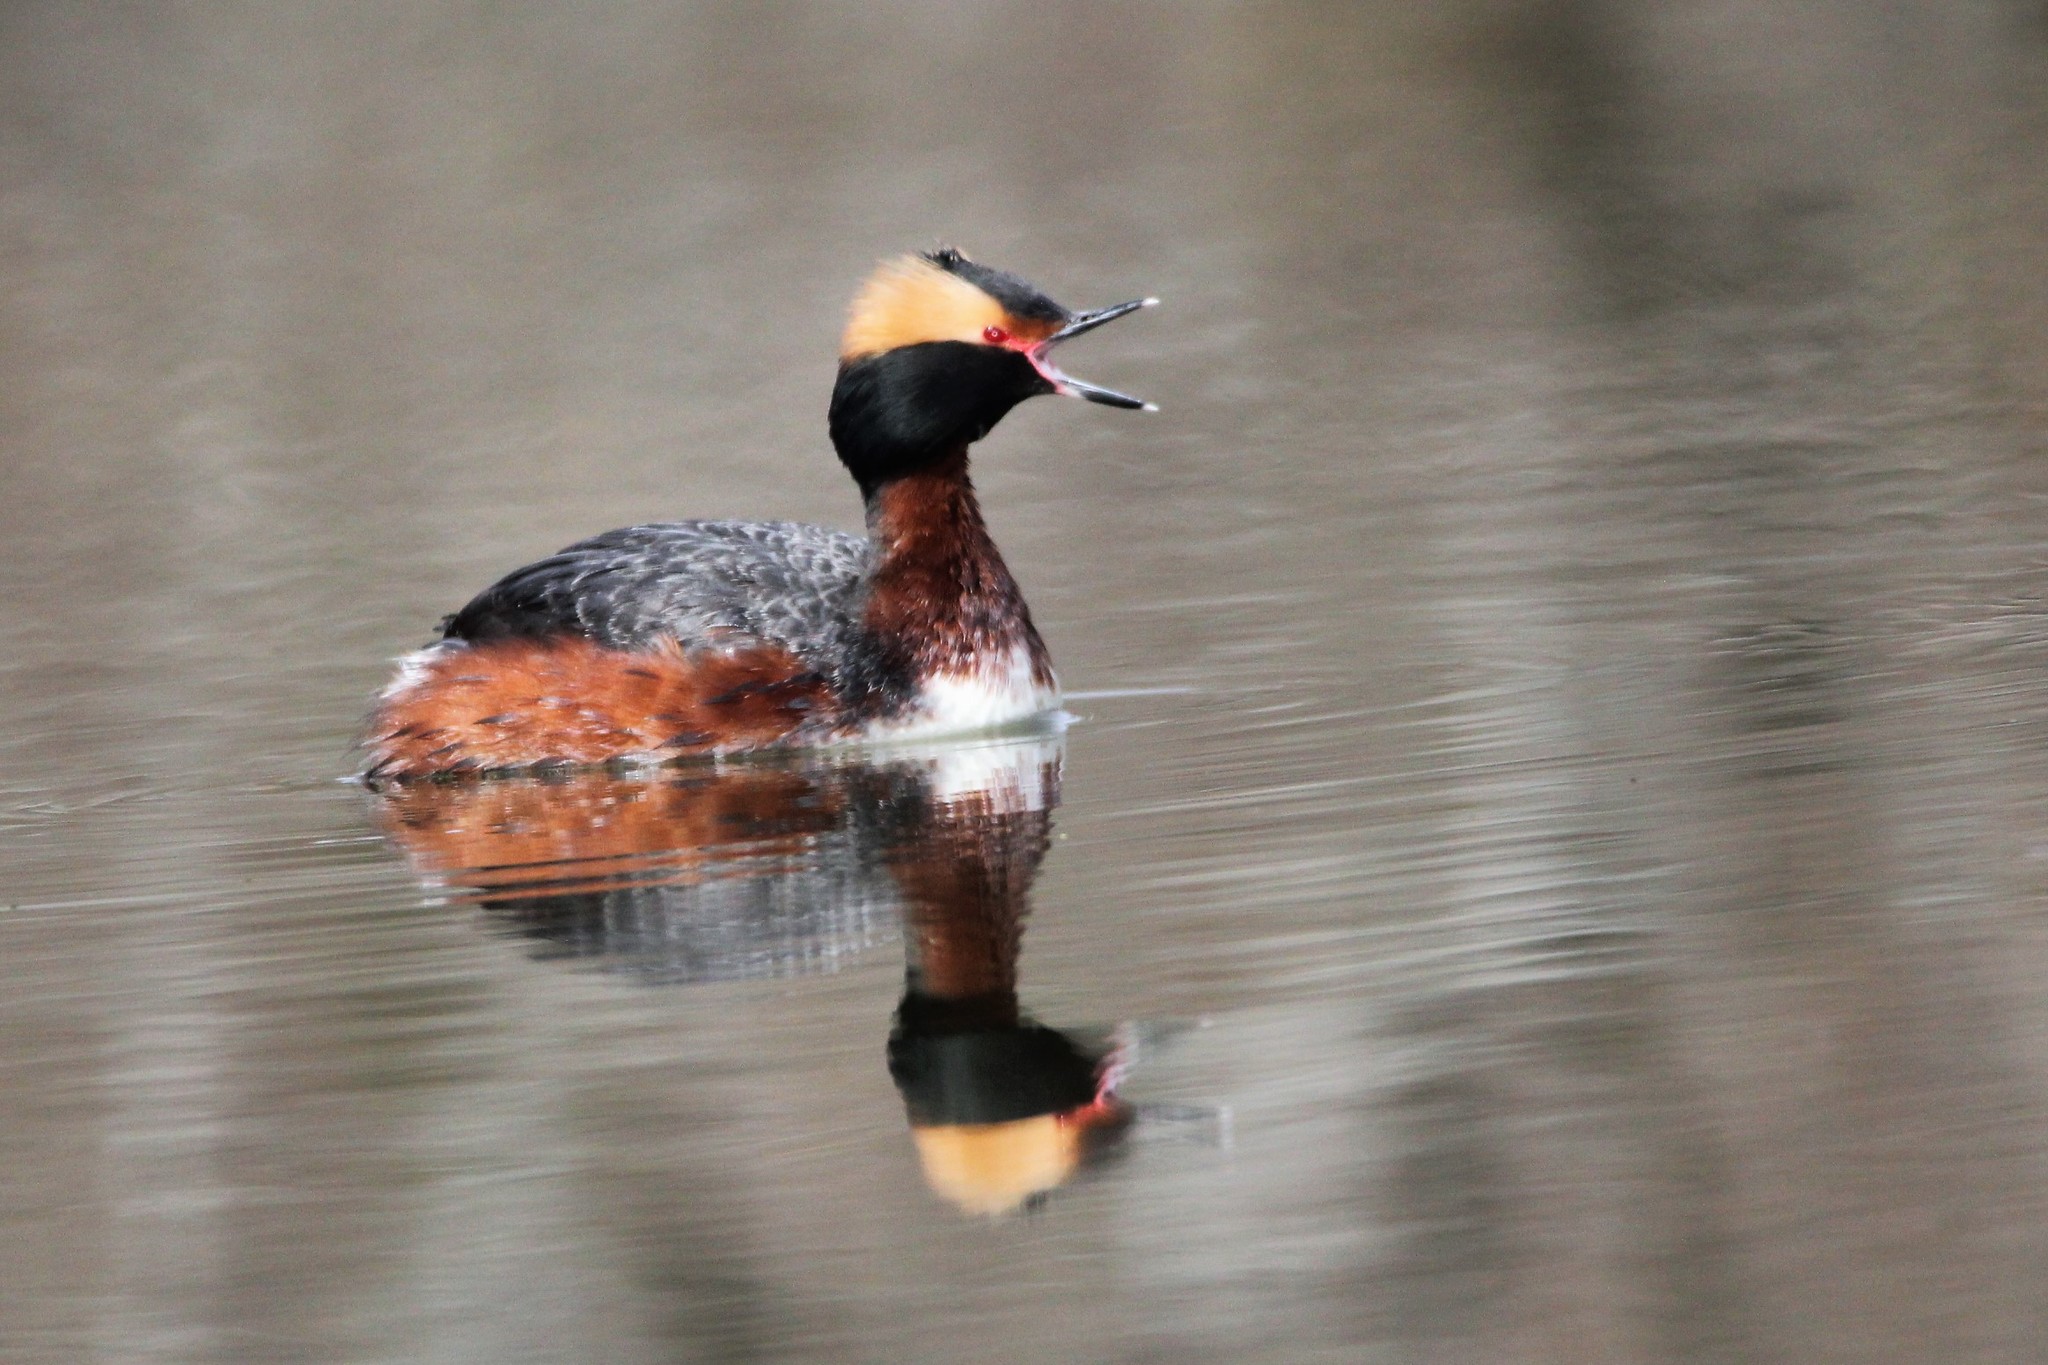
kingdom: Animalia
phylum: Chordata
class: Aves
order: Podicipediformes
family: Podicipedidae
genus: Podiceps
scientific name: Podiceps auritus
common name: Horned grebe
